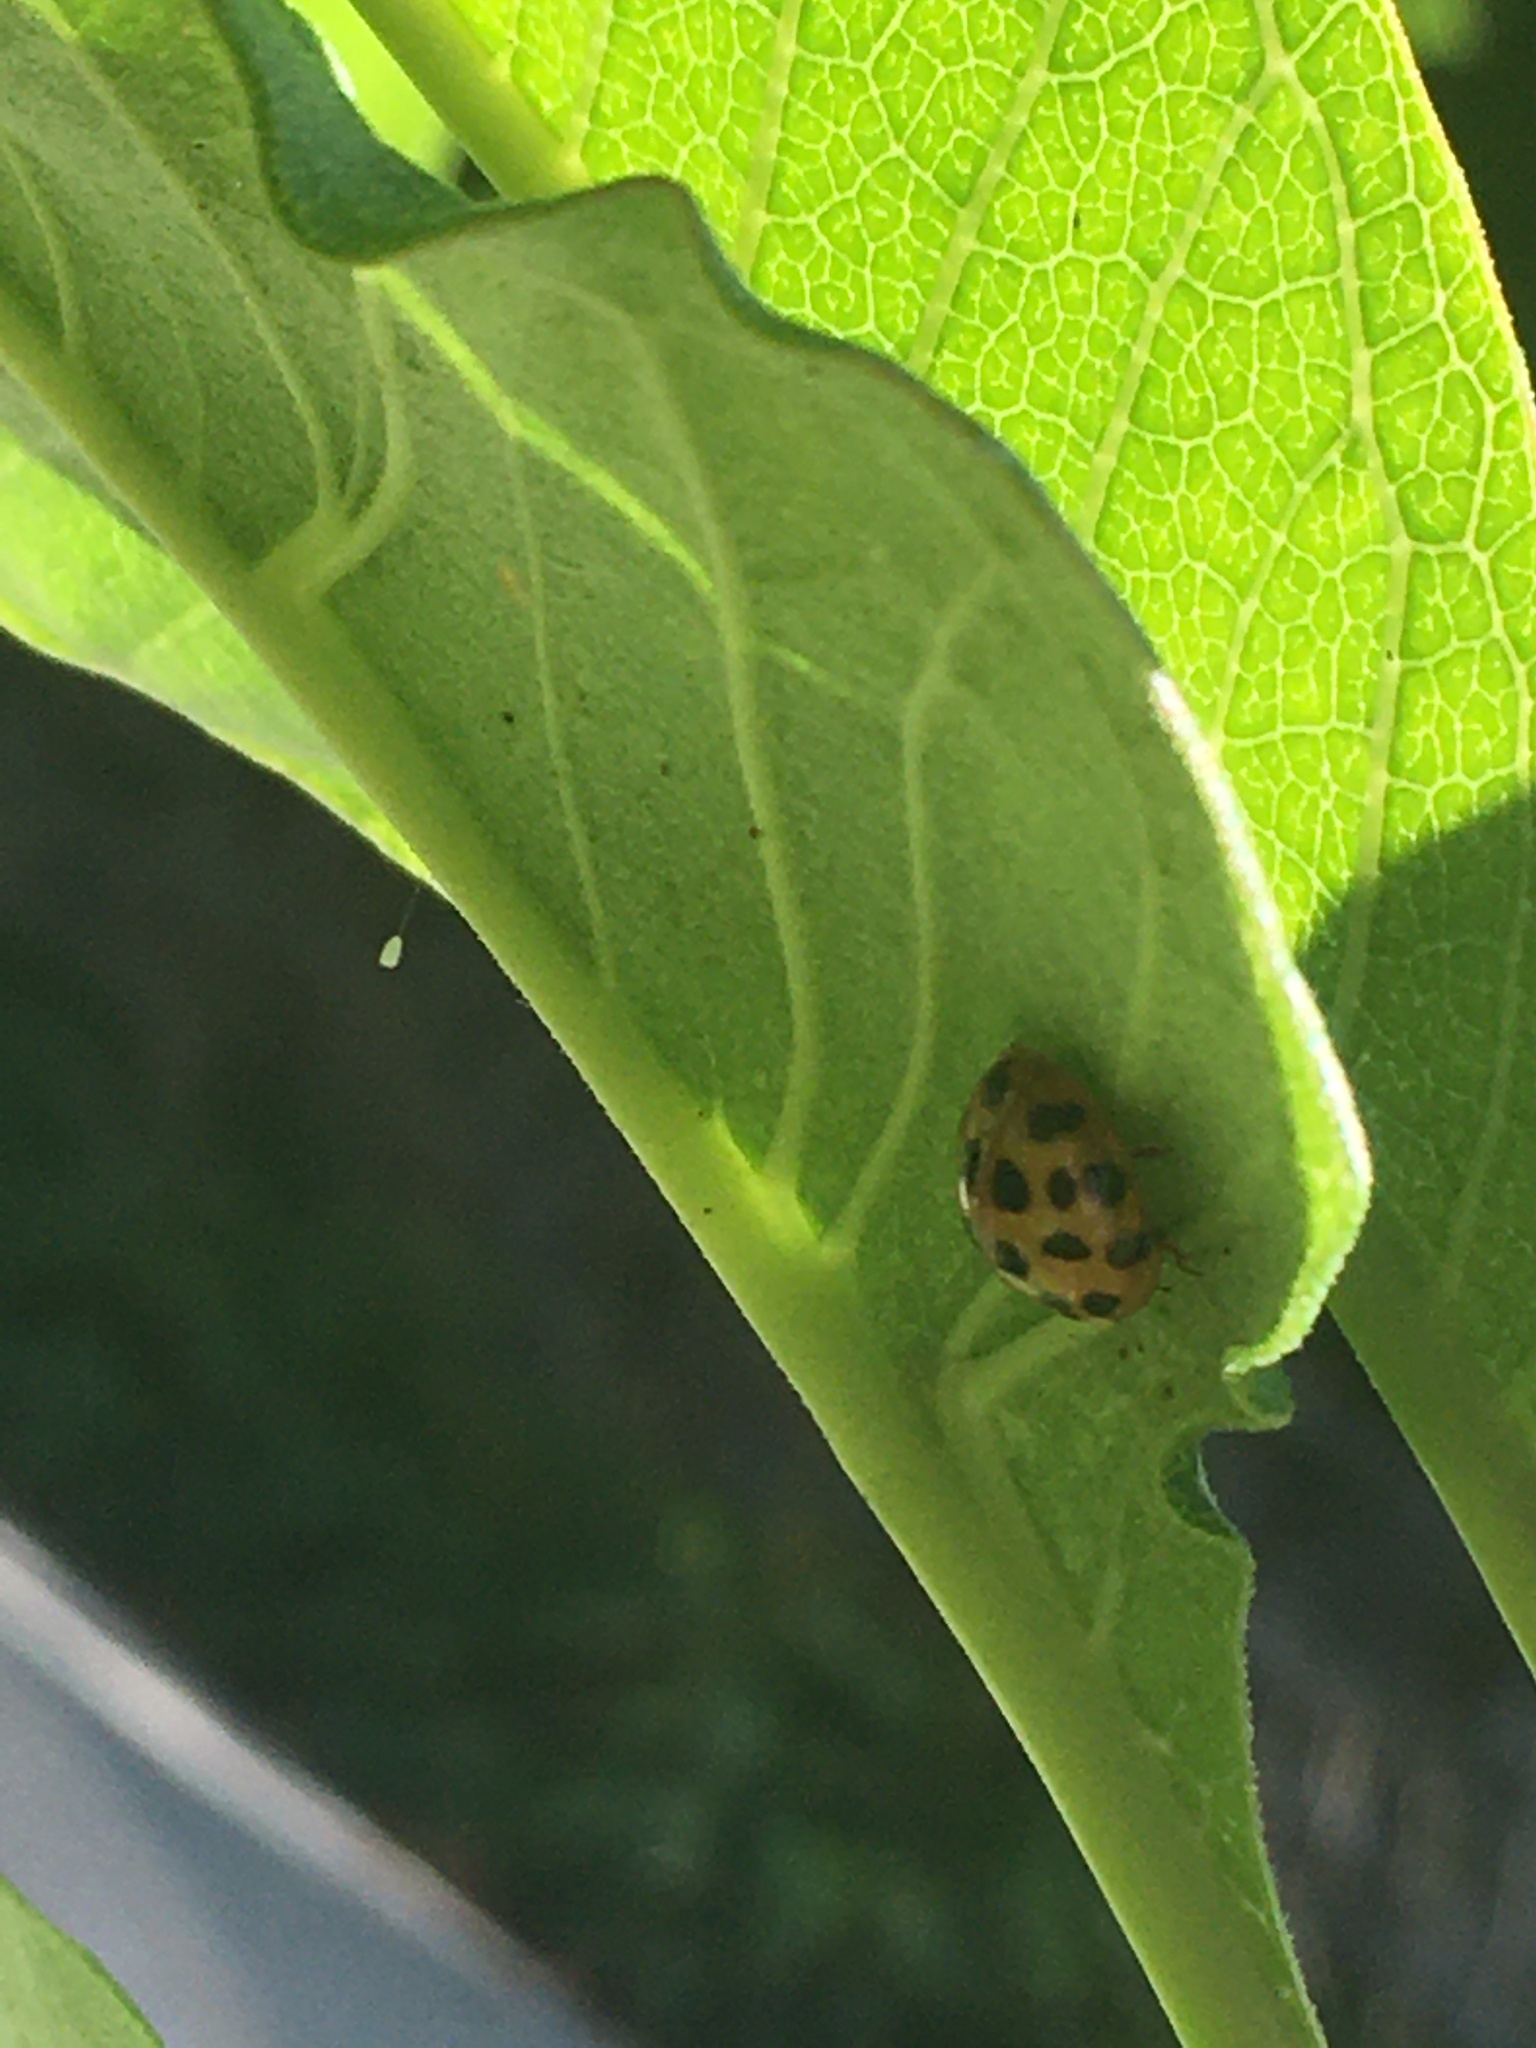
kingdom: Animalia
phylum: Arthropoda
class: Insecta
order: Coleoptera
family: Coccinellidae
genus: Harmonia
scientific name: Harmonia axyridis
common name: Harlequin ladybird
